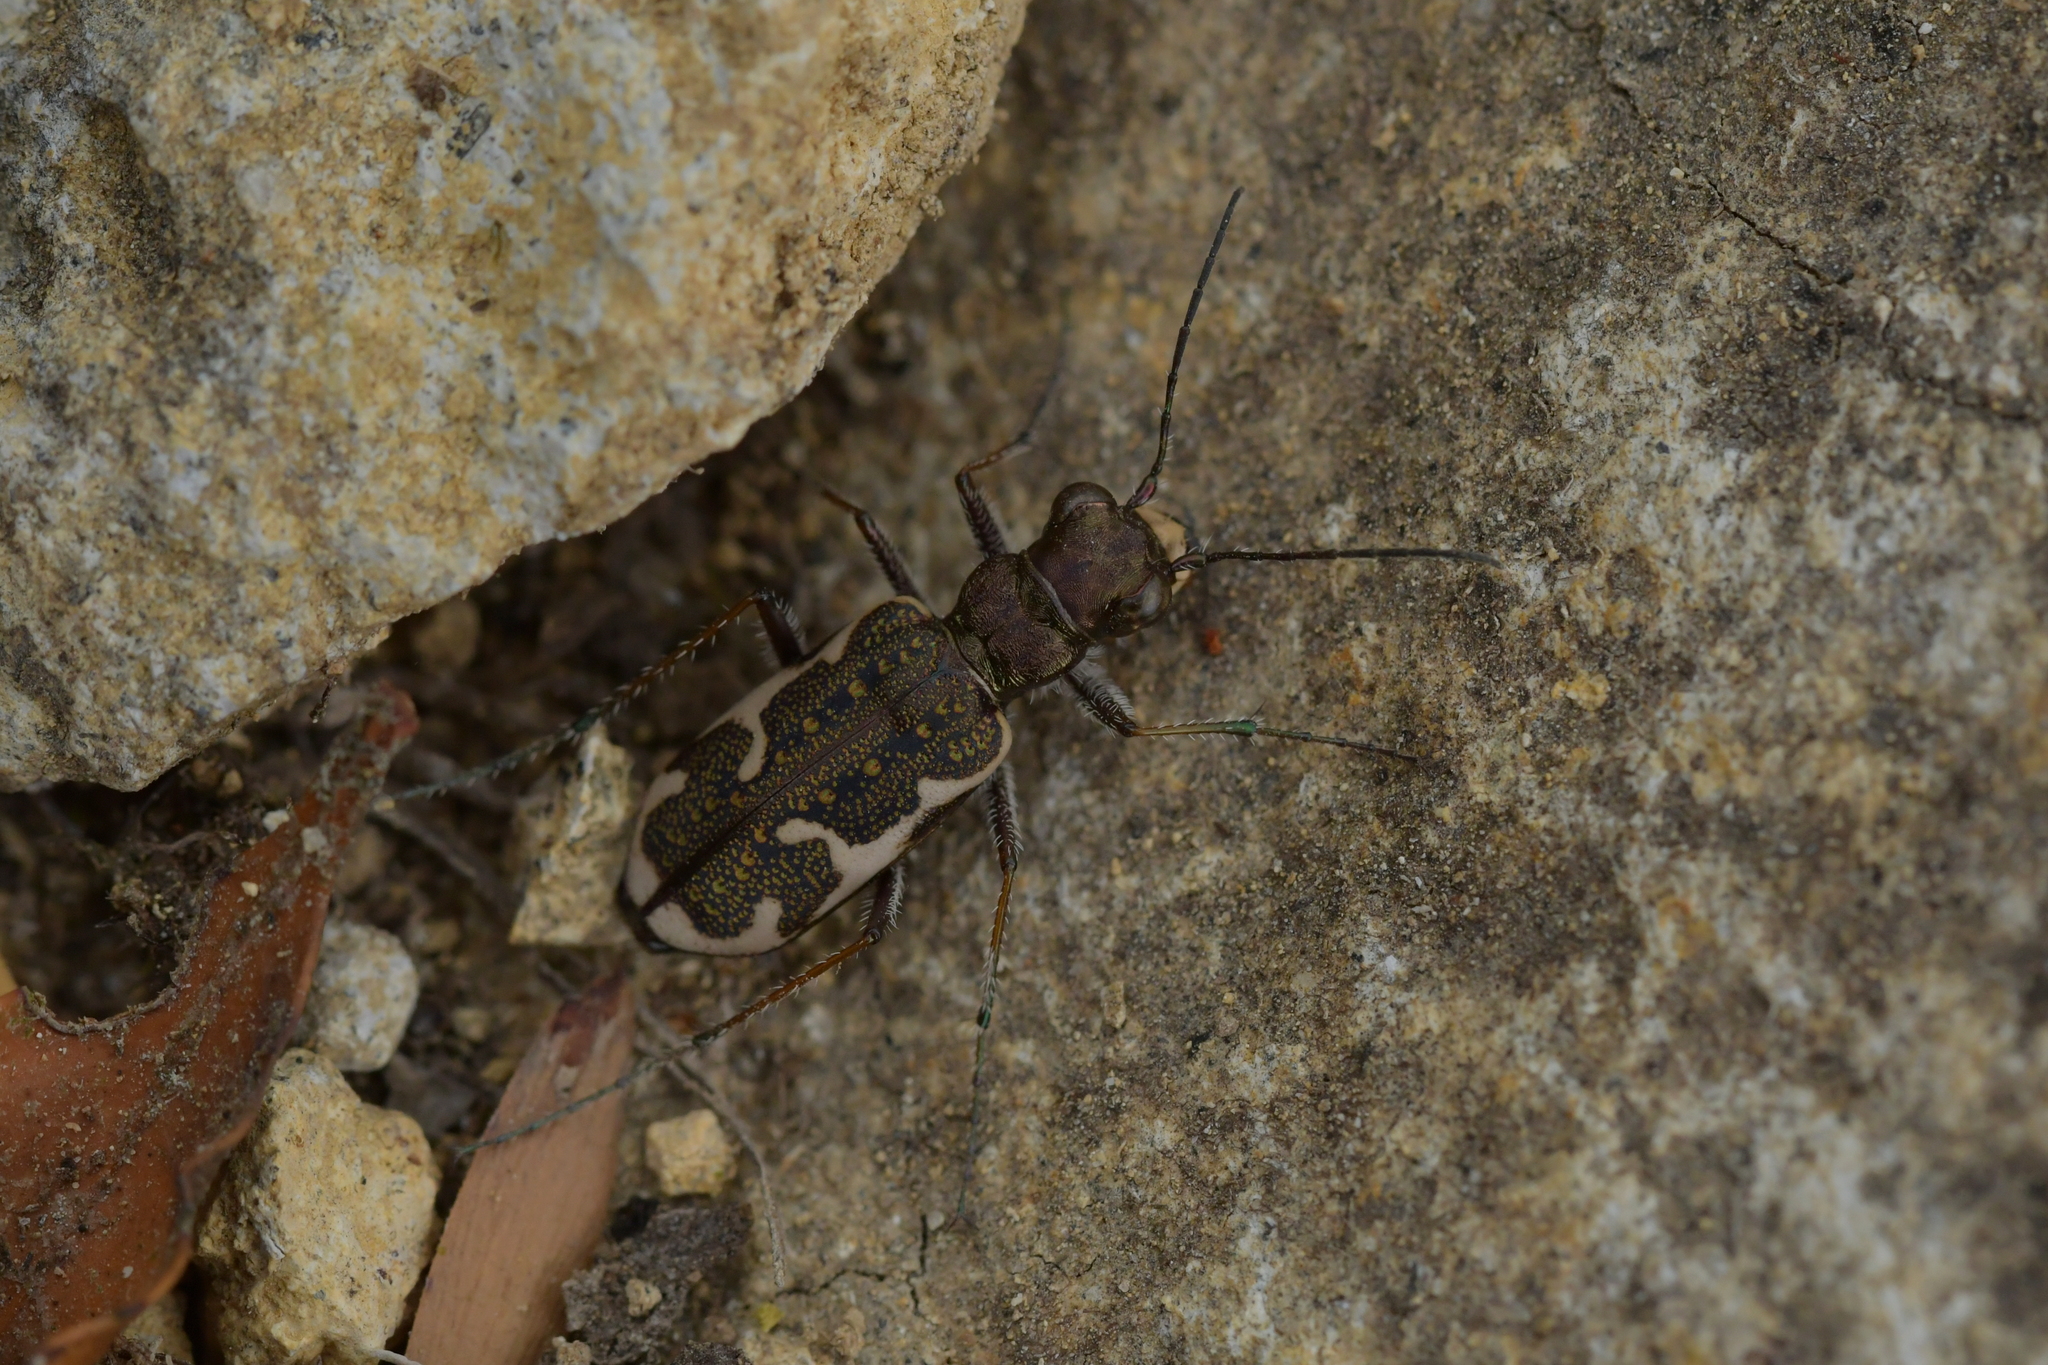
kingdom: Animalia
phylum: Arthropoda
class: Insecta
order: Coleoptera
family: Carabidae
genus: Neocicindela
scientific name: Neocicindela tuberculata
